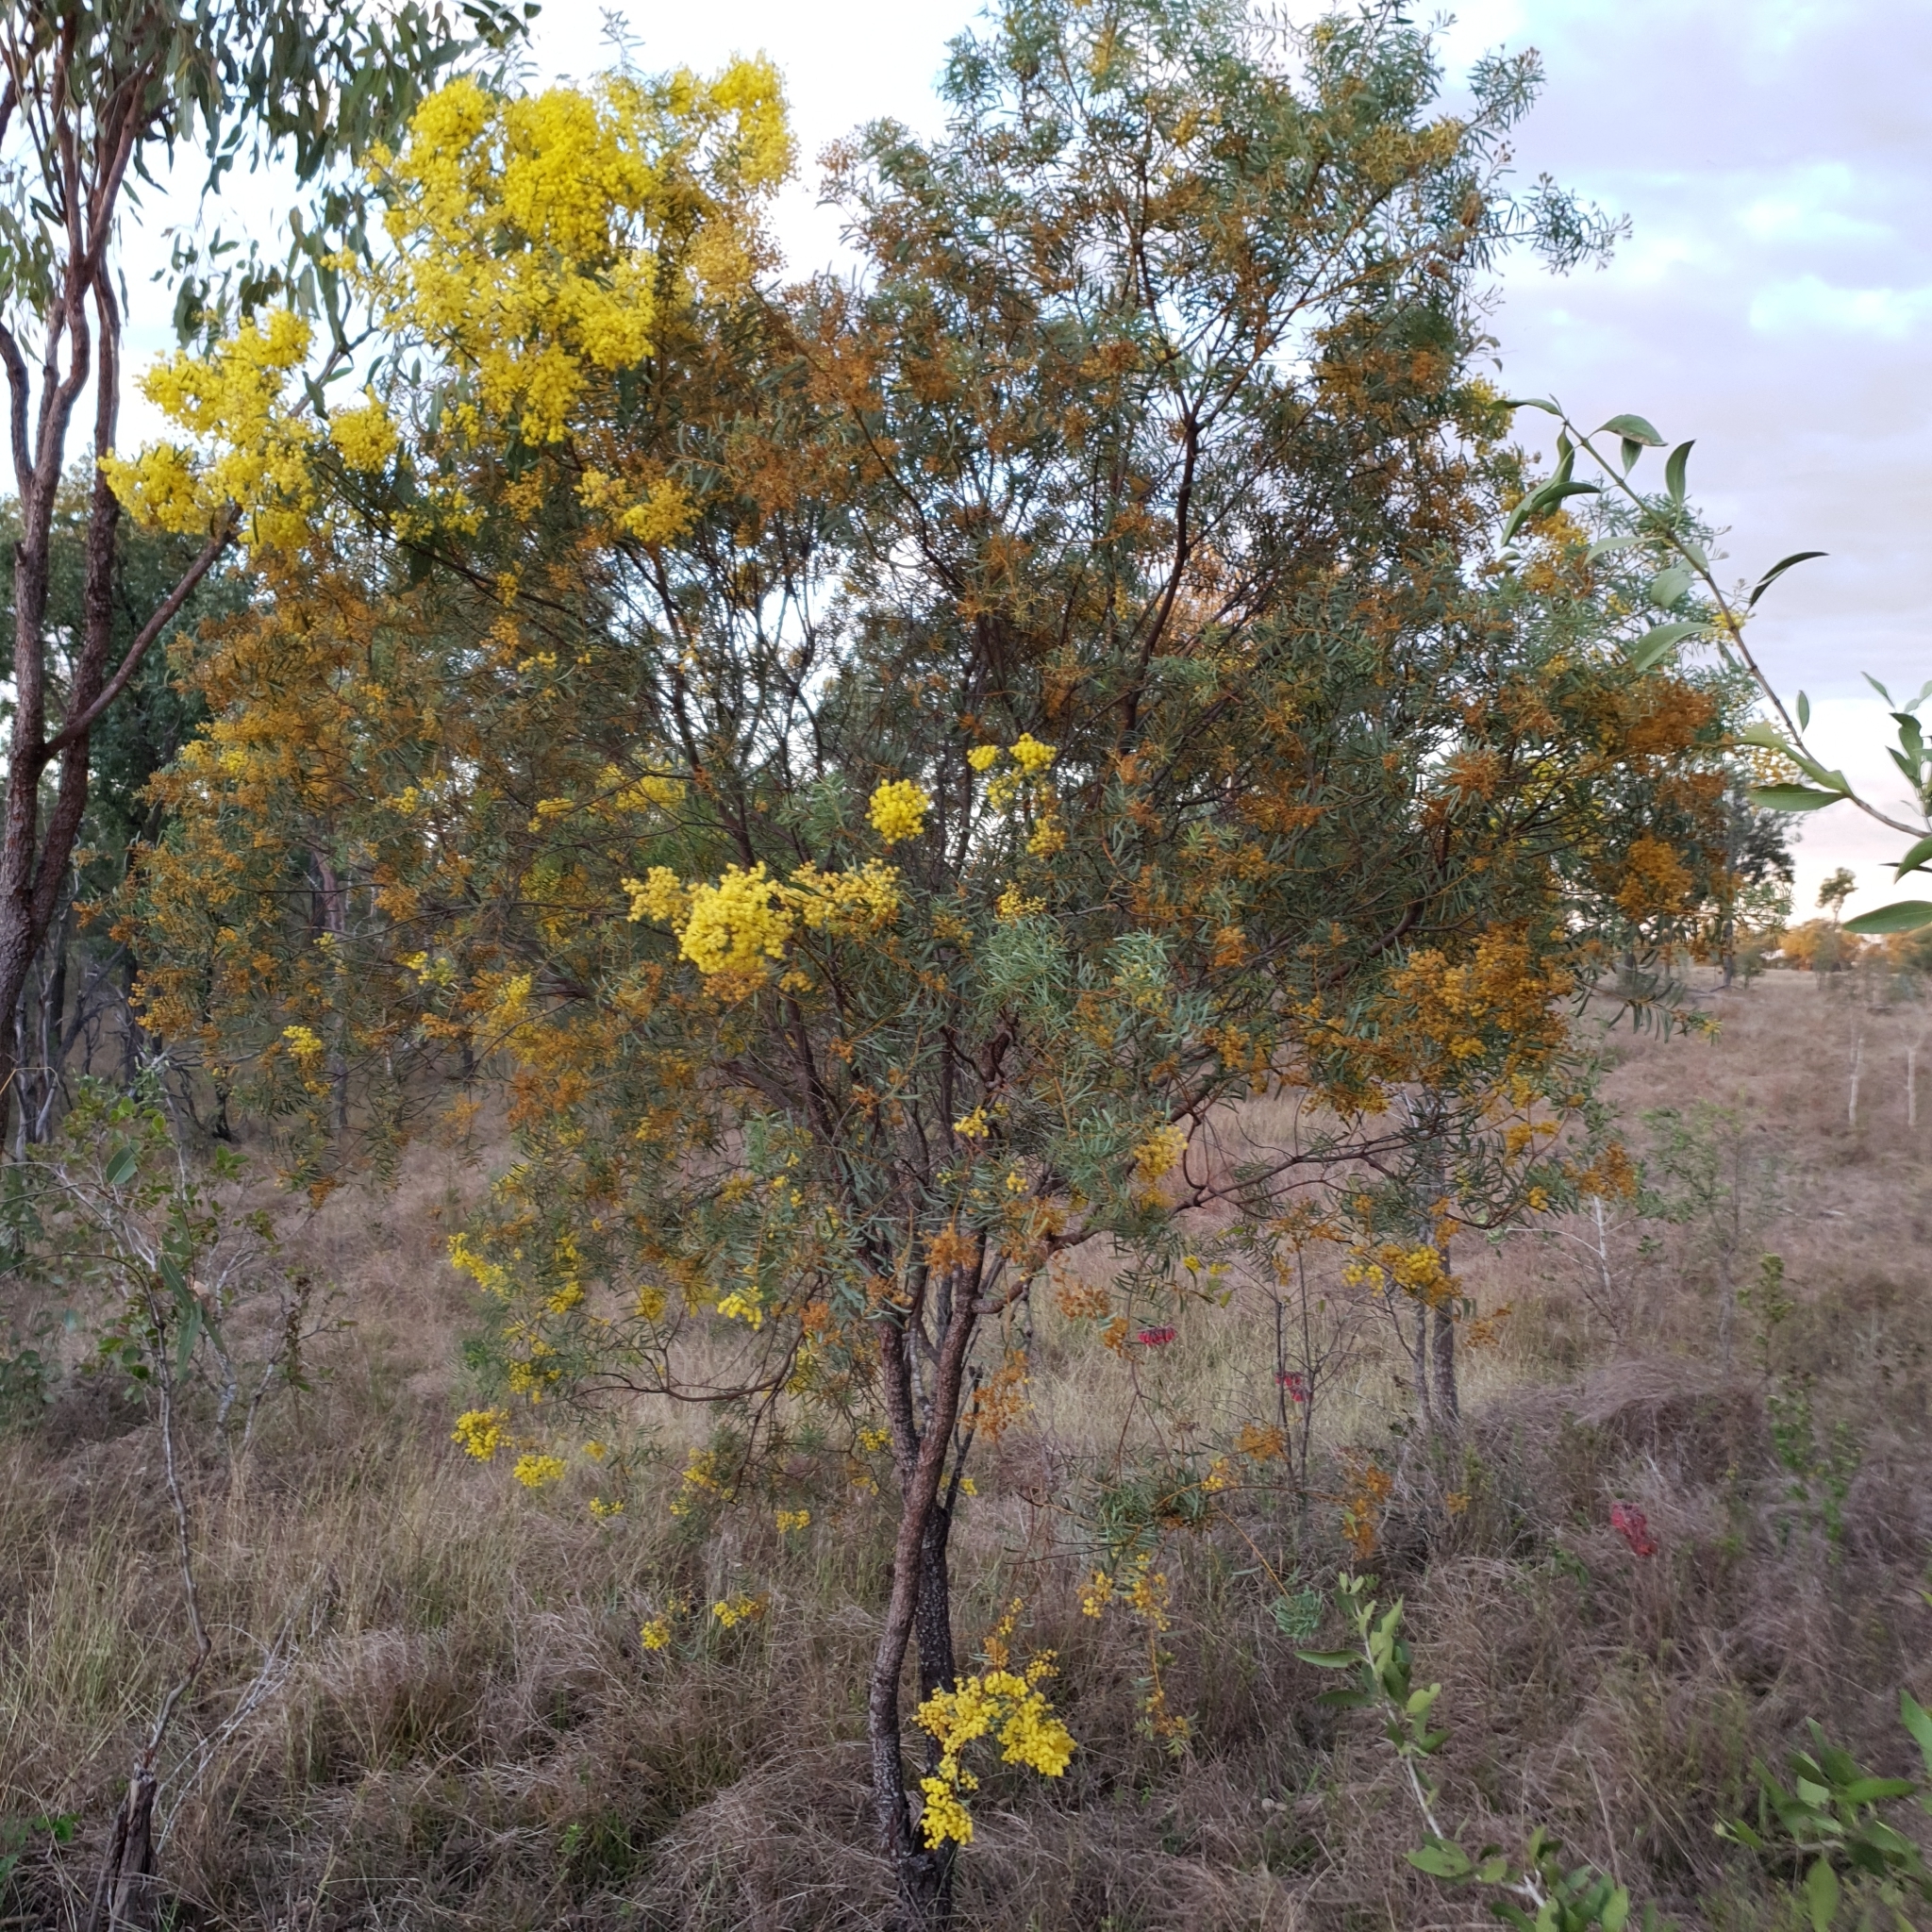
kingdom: Plantae
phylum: Tracheophyta
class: Magnoliopsida
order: Fabales
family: Fabaceae
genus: Acacia
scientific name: Acacia decora
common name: Showy wattle
